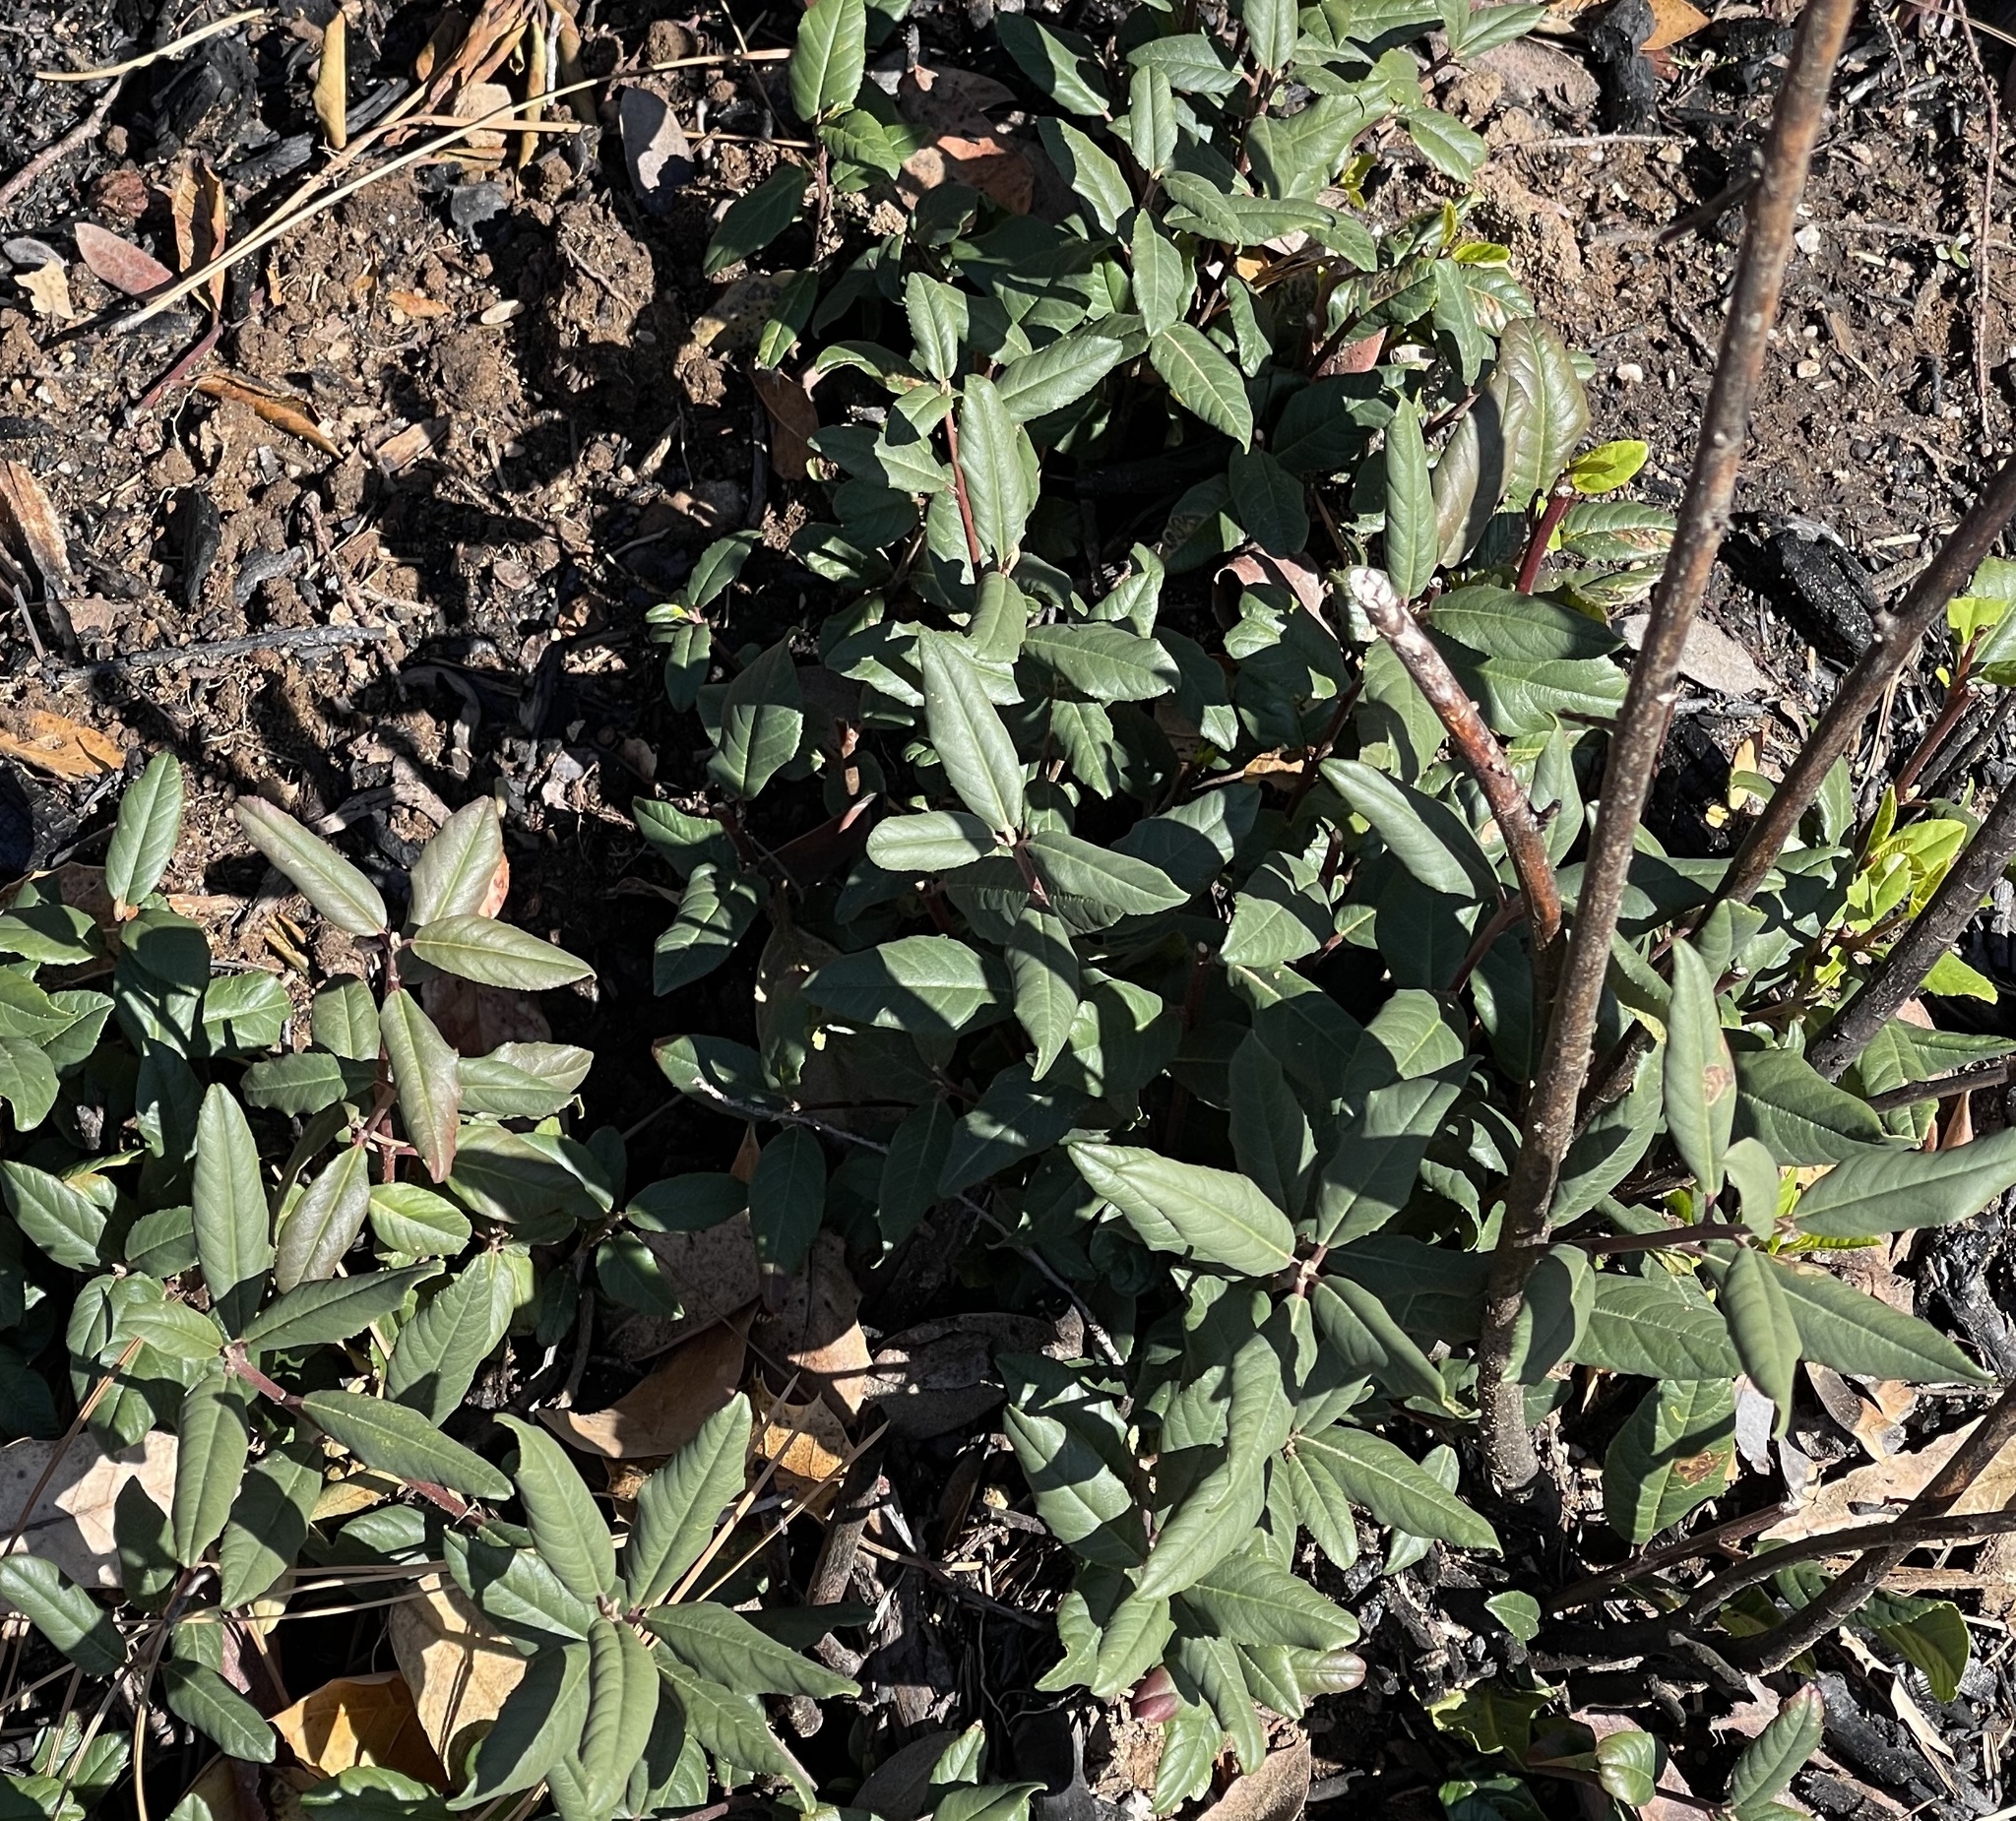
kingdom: Plantae
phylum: Tracheophyta
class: Magnoliopsida
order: Rosales
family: Rhamnaceae
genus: Frangula
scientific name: Frangula californica
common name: California buckthorn
